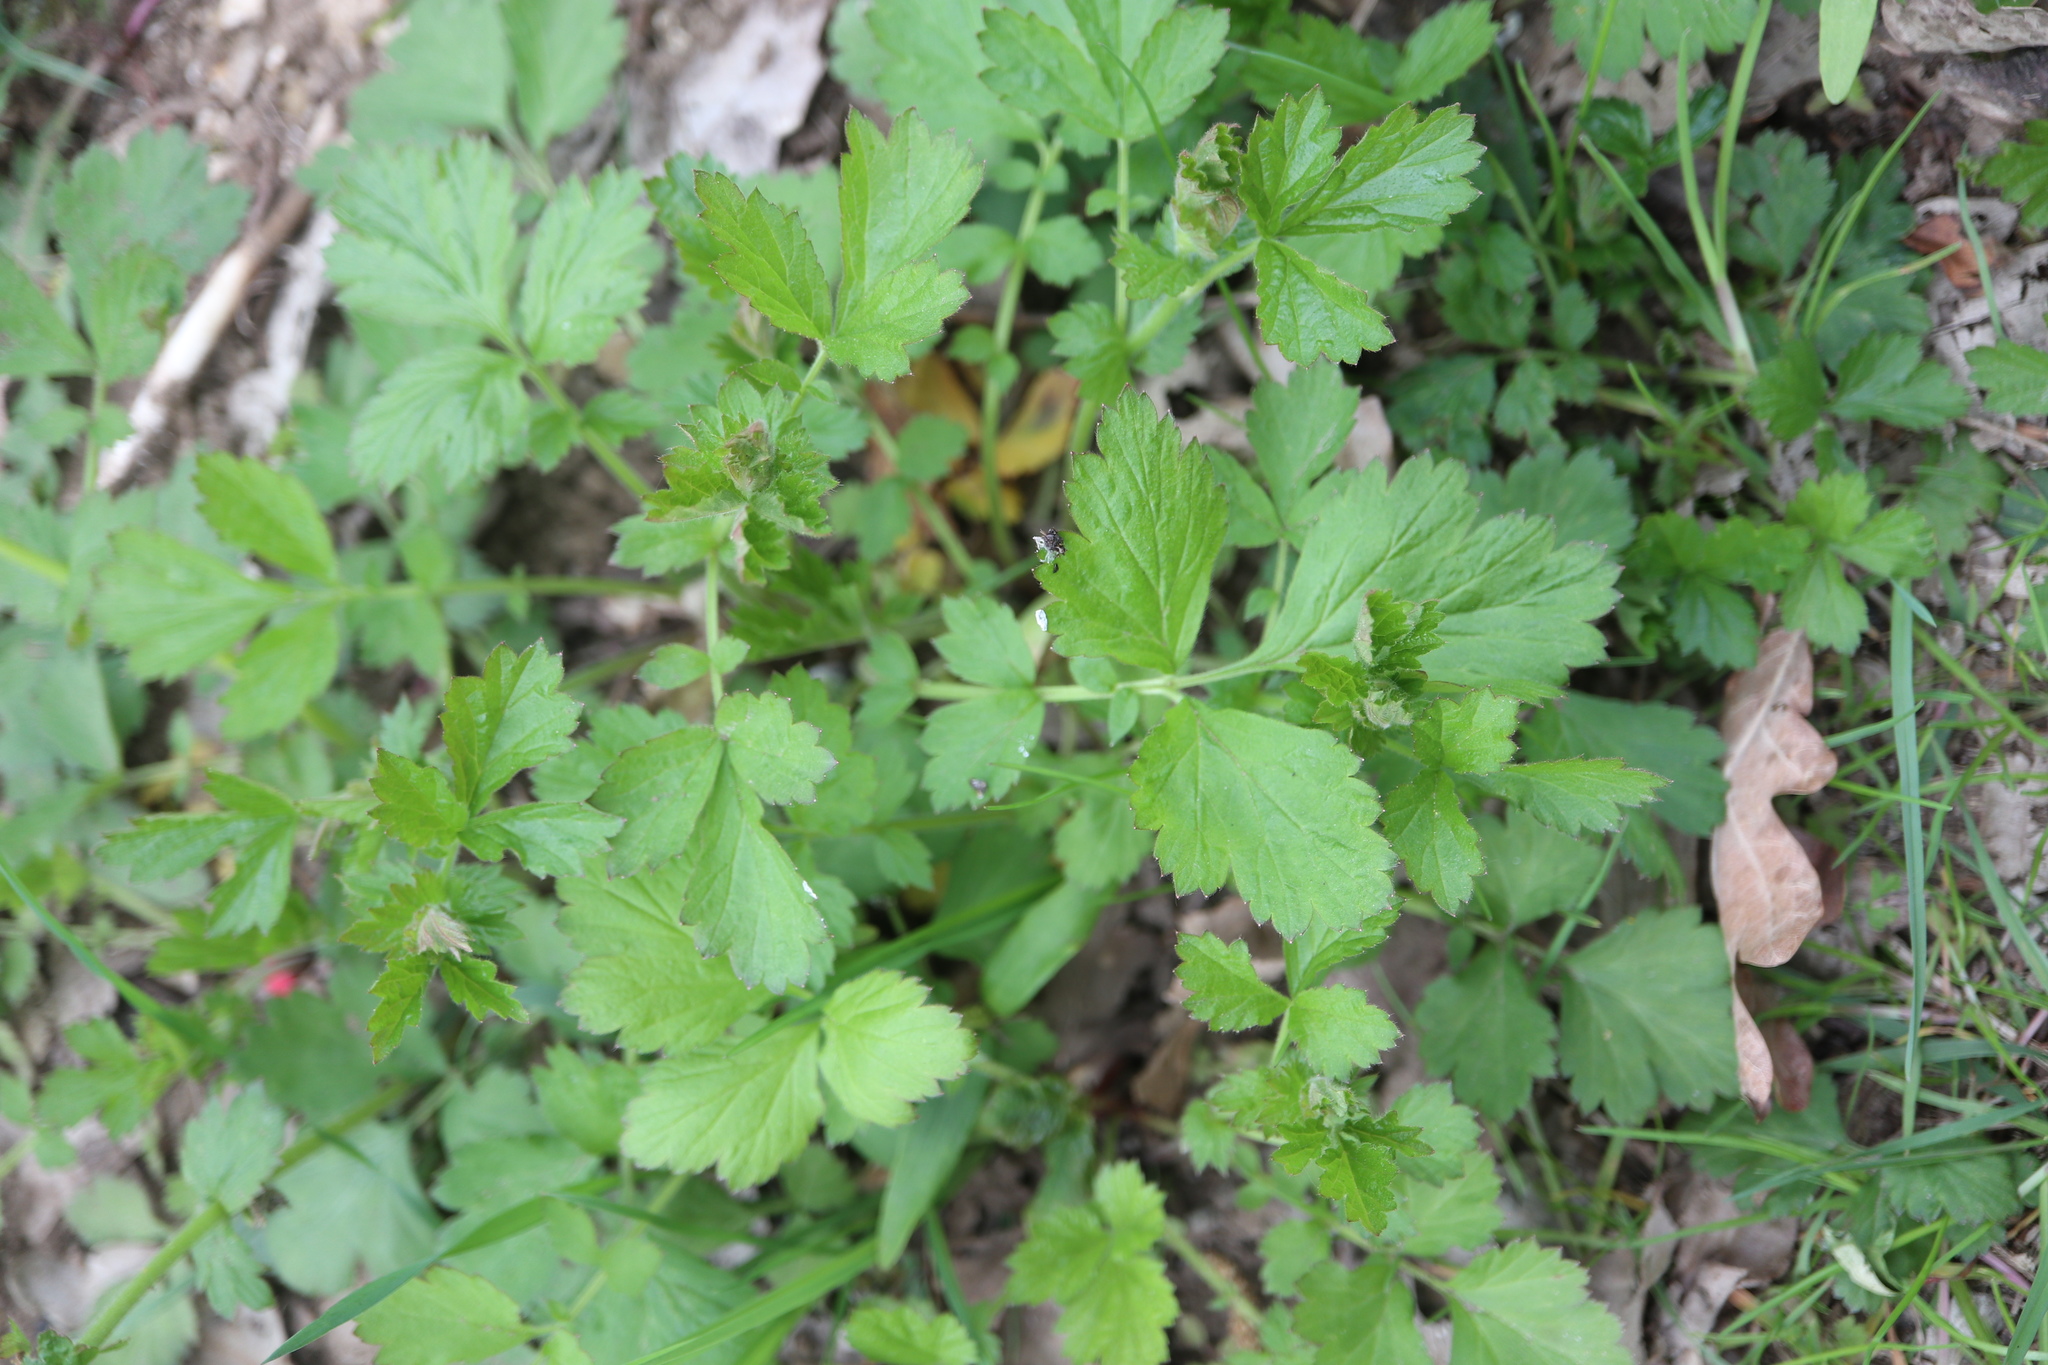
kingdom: Plantae
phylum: Tracheophyta
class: Magnoliopsida
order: Rosales
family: Rosaceae
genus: Geum
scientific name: Geum urbanum
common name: Wood avens
